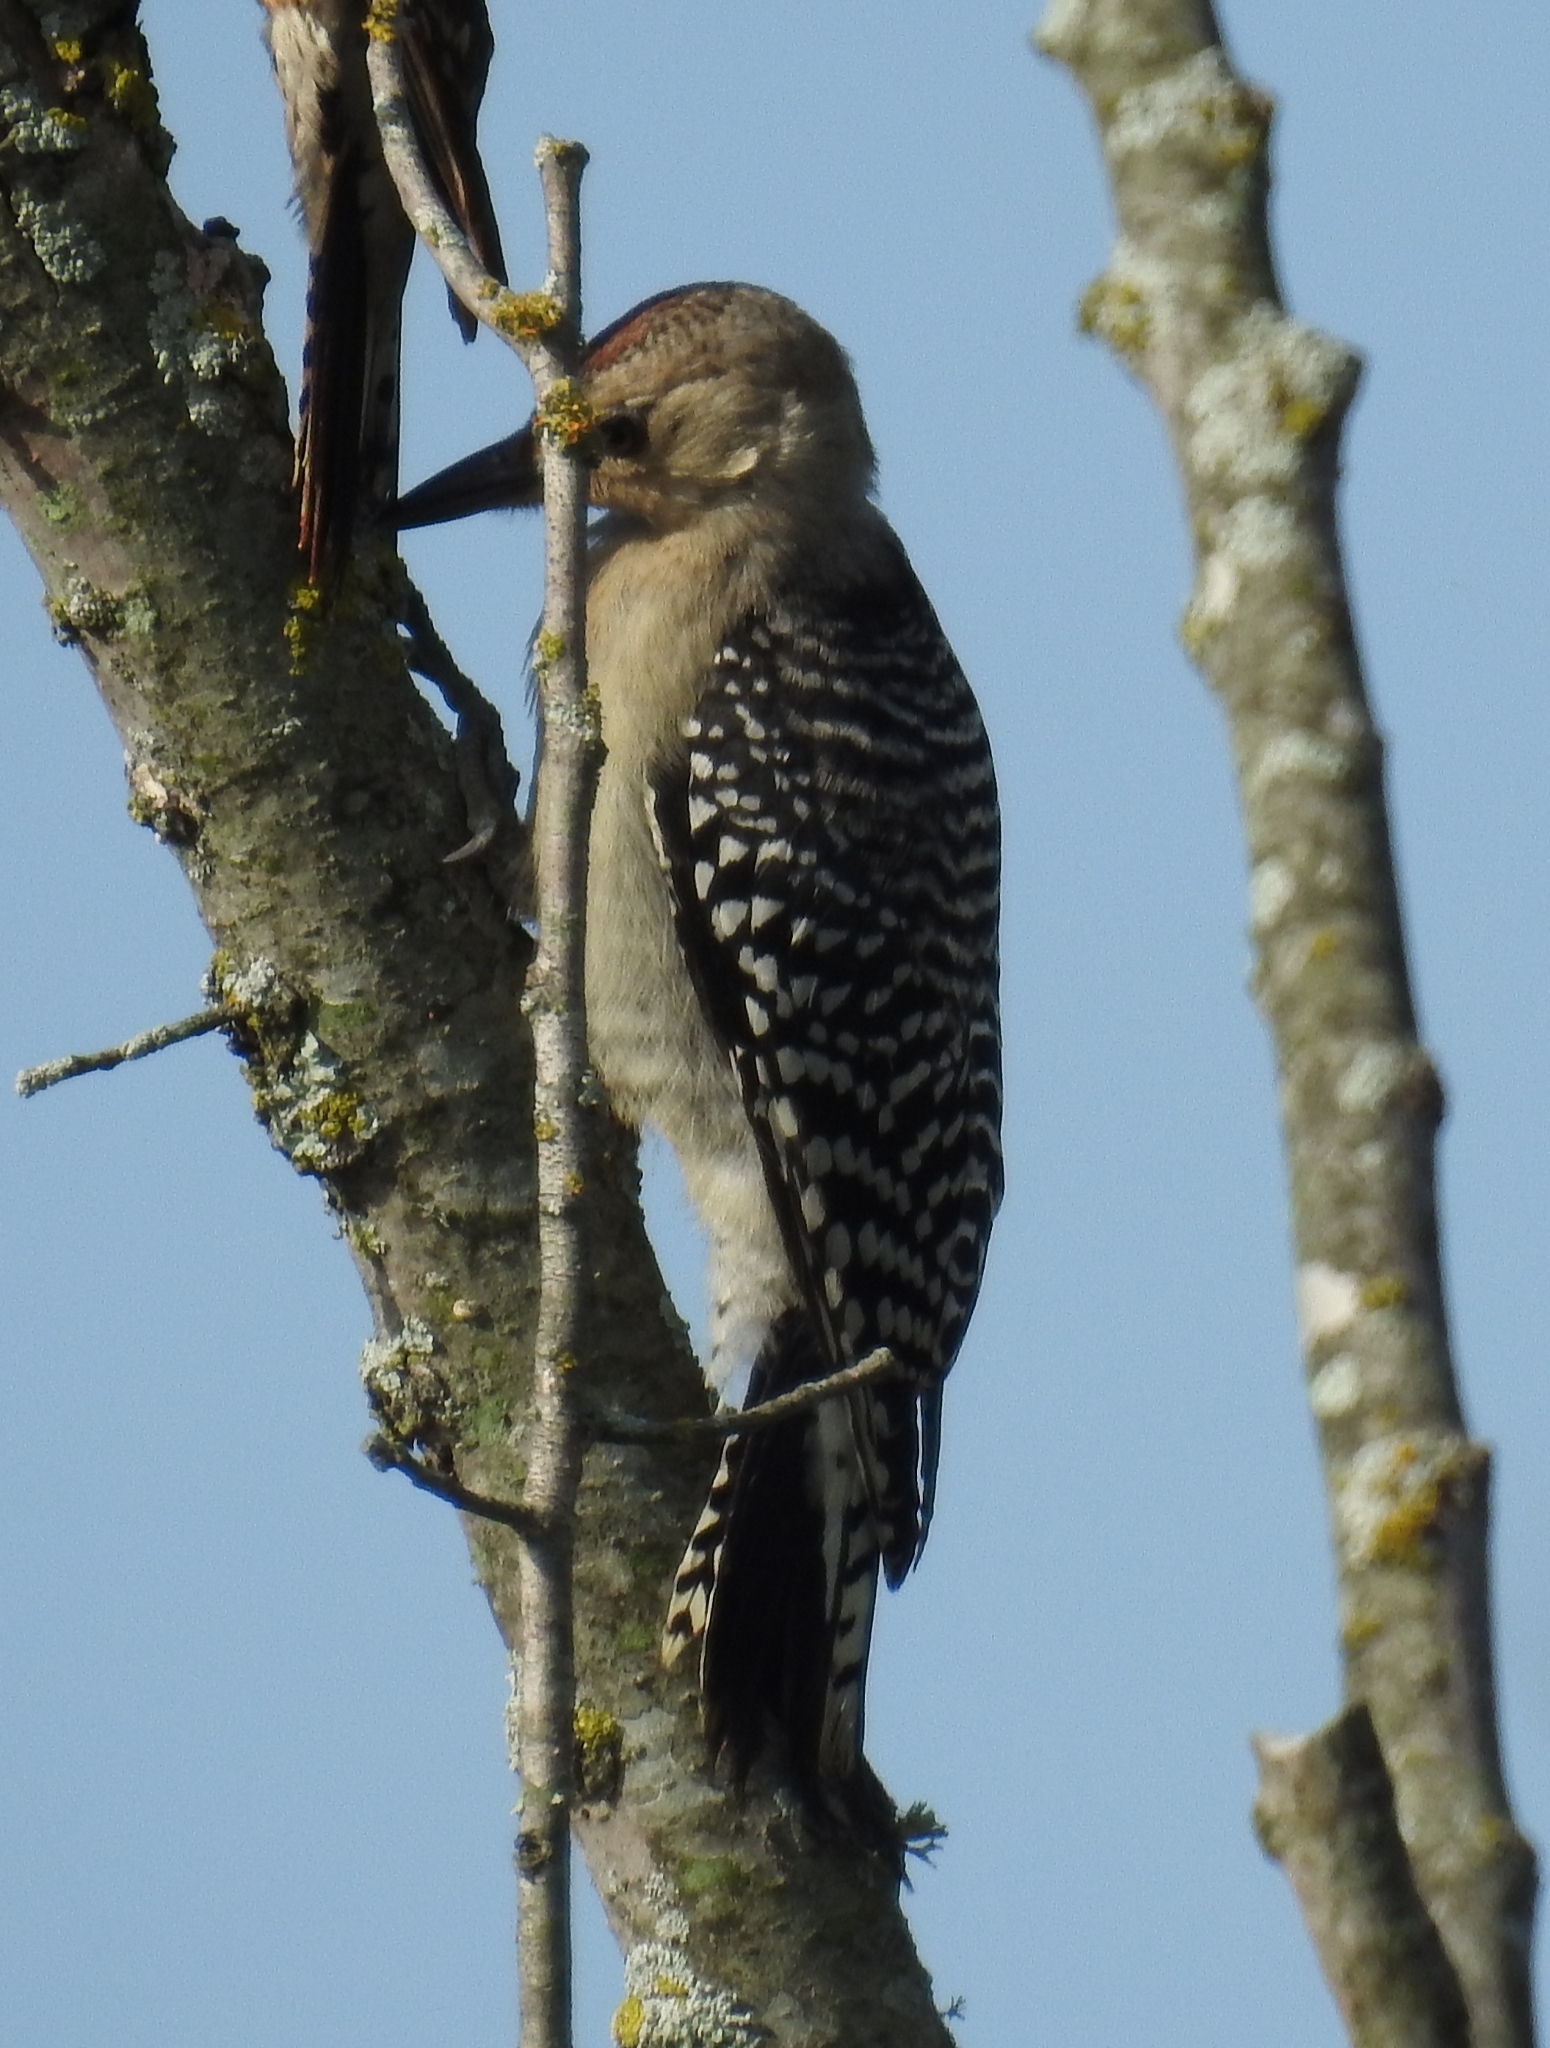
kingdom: Animalia
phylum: Chordata
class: Aves
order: Piciformes
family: Picidae
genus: Melanerpes
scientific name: Melanerpes carolinus
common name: Red-bellied woodpecker
